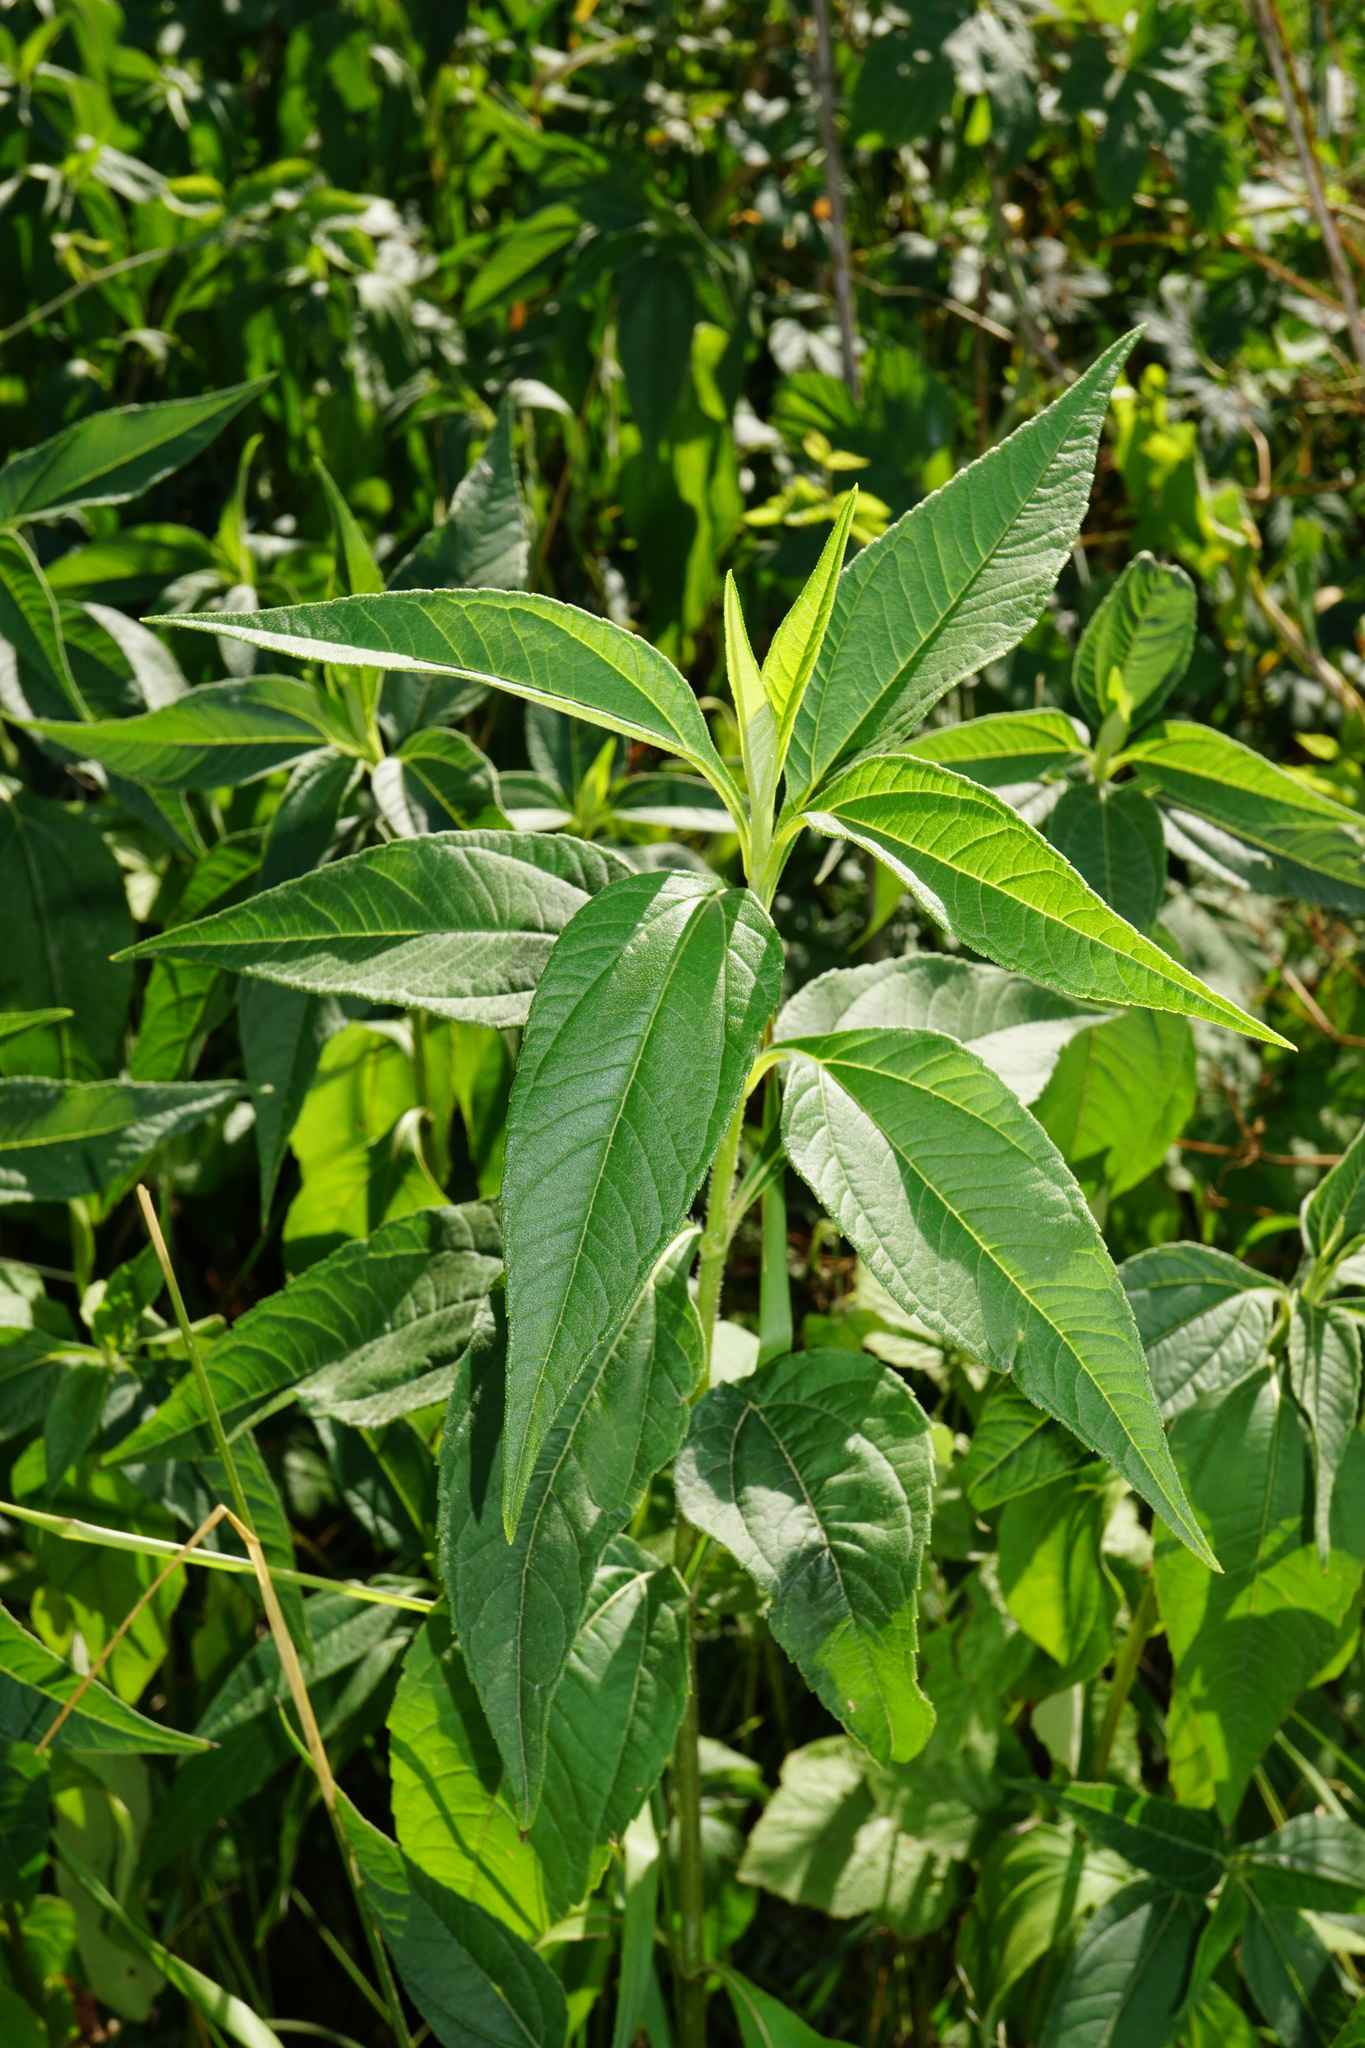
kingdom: Plantae
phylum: Tracheophyta
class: Magnoliopsida
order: Asterales
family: Asteraceae
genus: Helianthus
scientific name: Helianthus tuberosus
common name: Jerusalem artichoke
